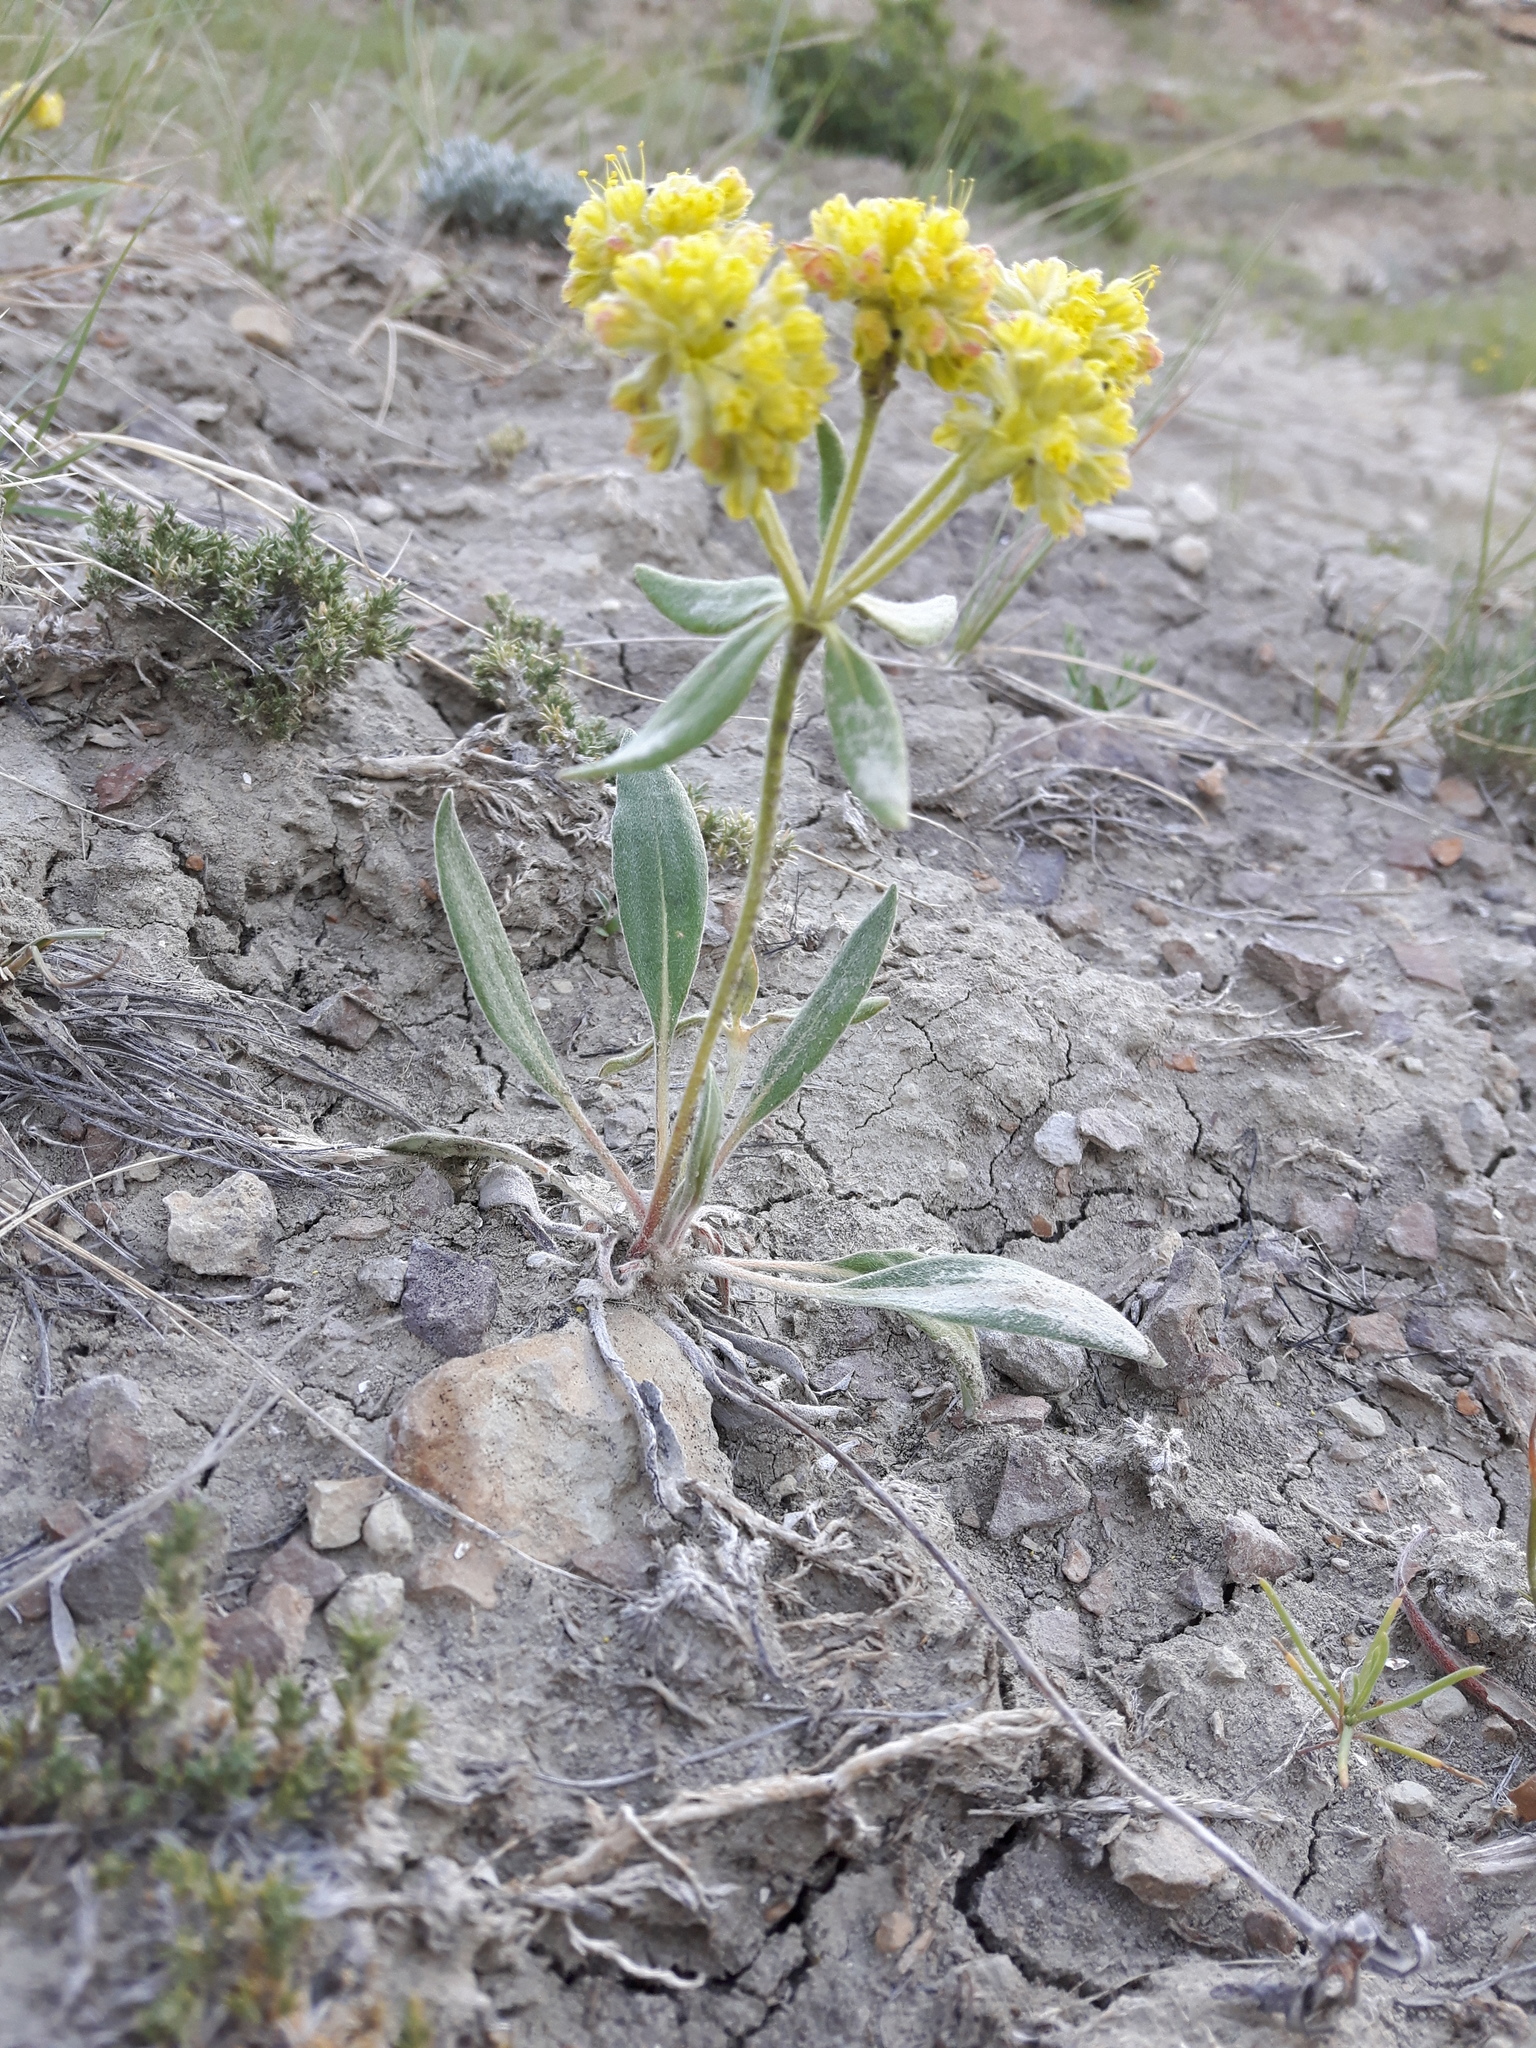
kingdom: Plantae
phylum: Tracheophyta
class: Magnoliopsida
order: Caryophyllales
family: Polygonaceae
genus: Eriogonum
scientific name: Eriogonum flavum
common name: Alpine golden wild buckwheat
